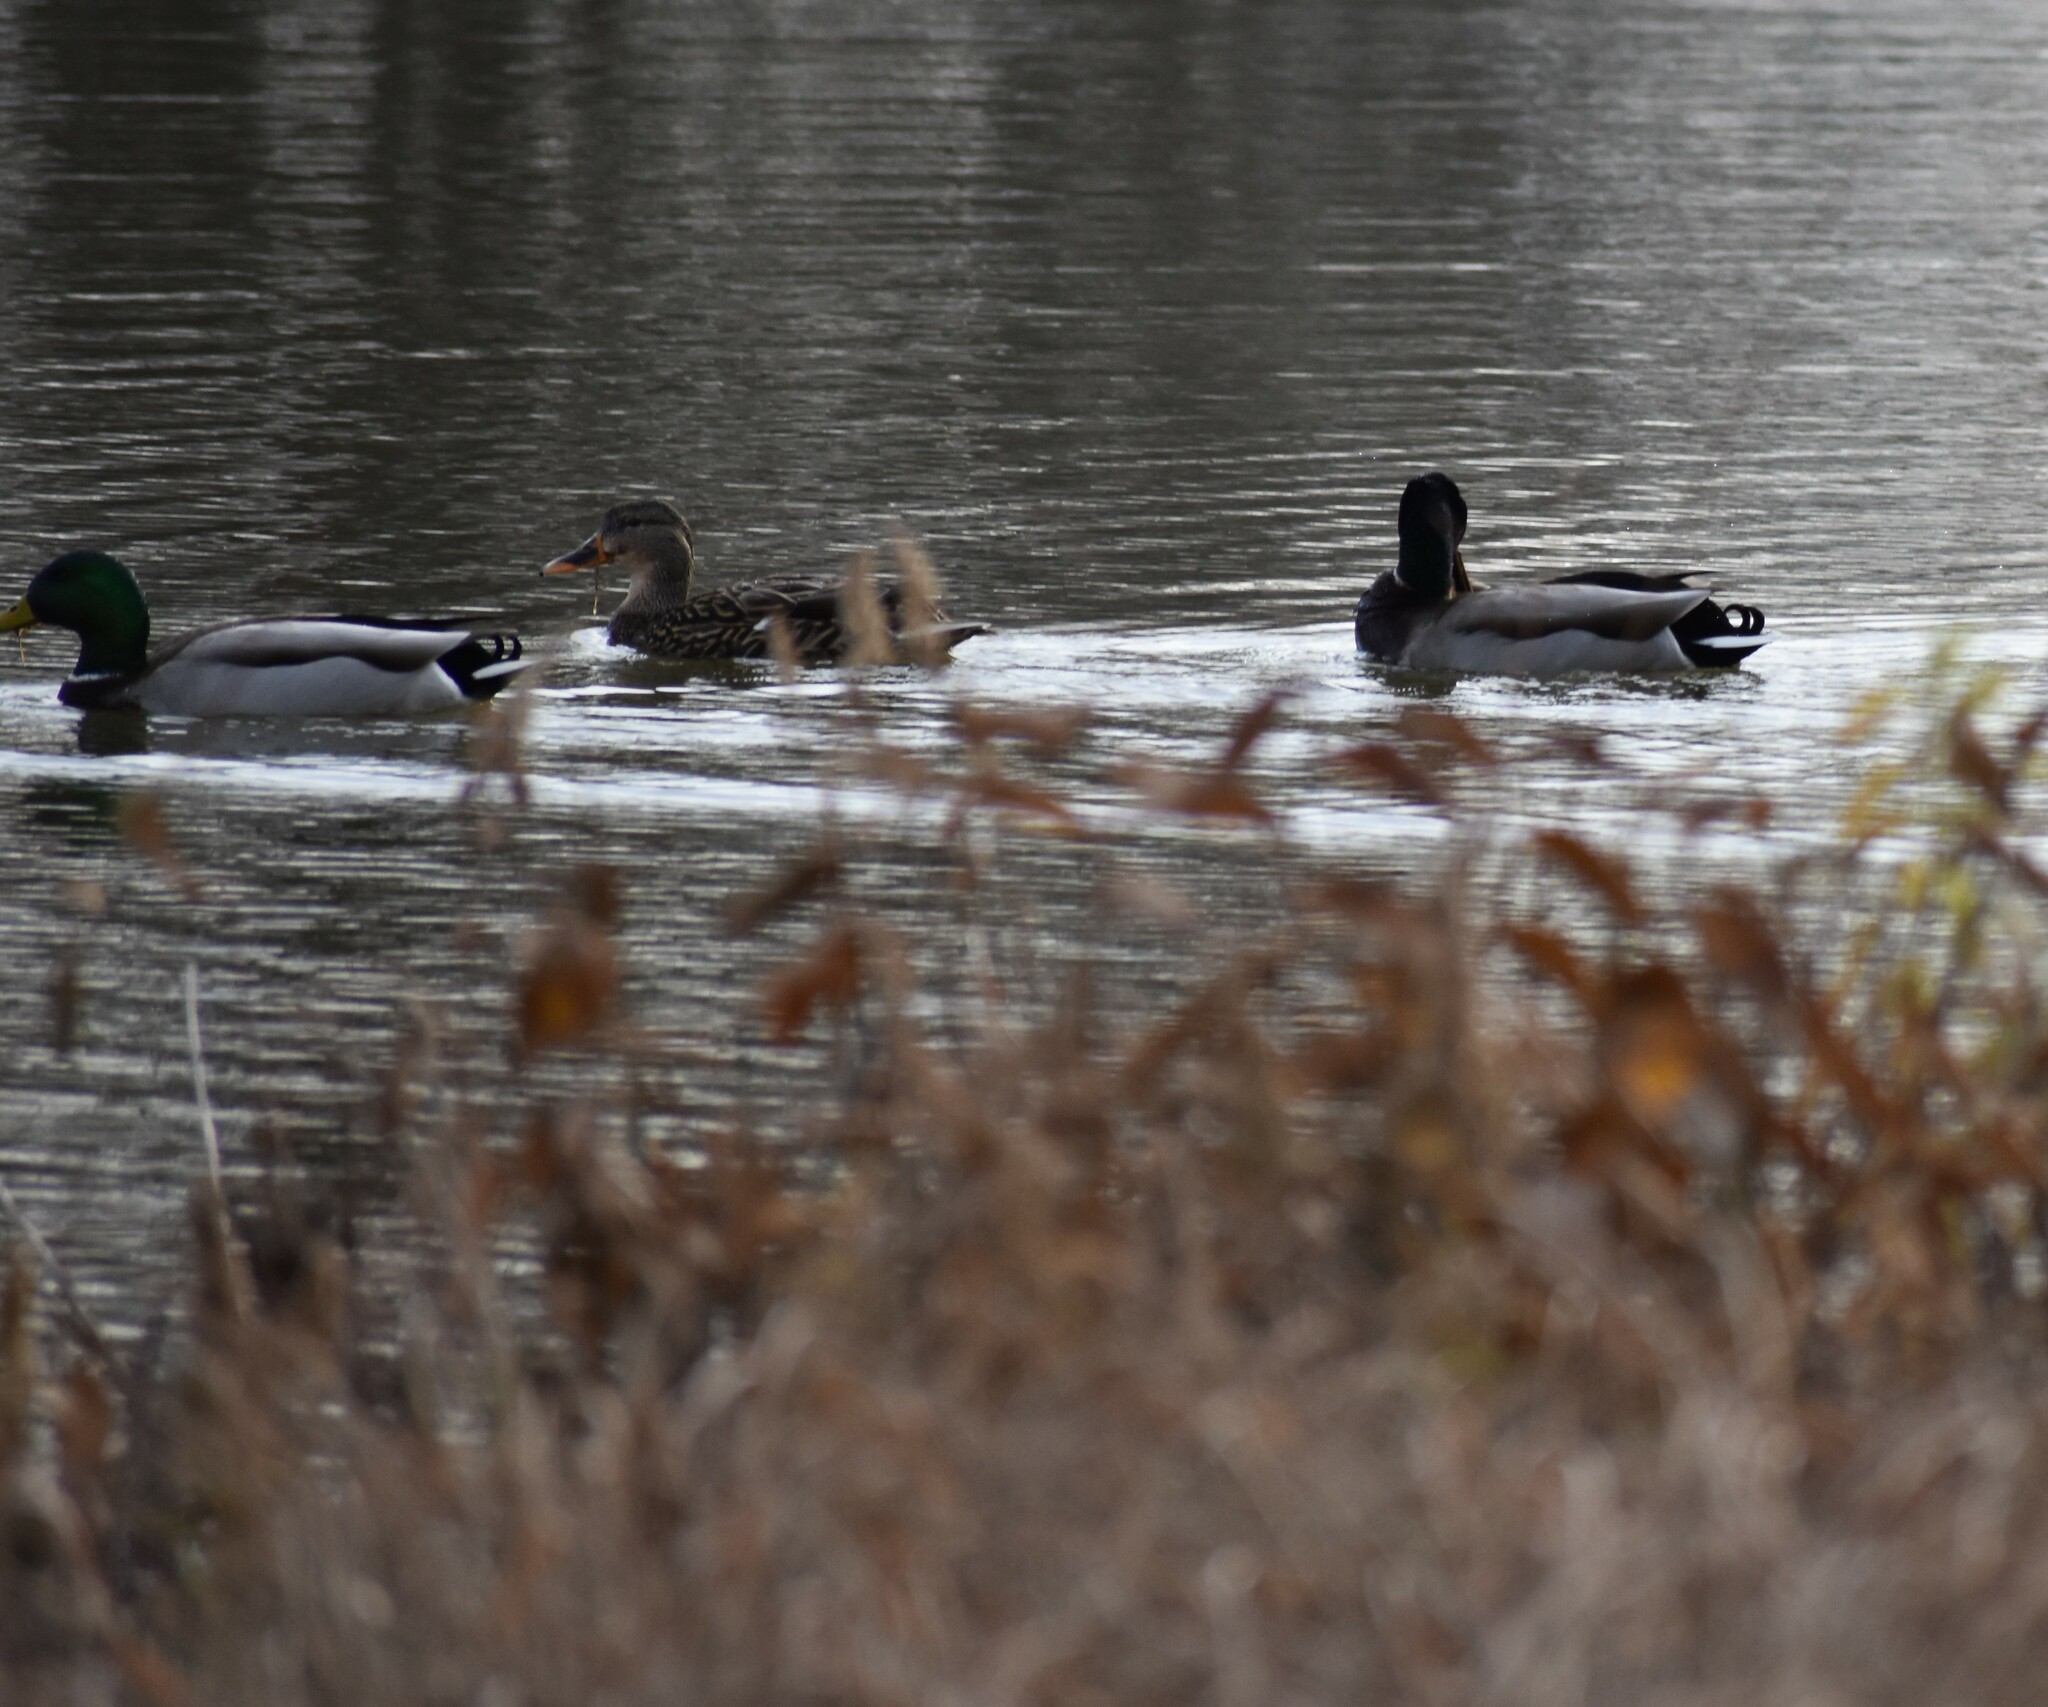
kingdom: Animalia
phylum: Chordata
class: Aves
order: Anseriformes
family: Anatidae
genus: Anas
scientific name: Anas platyrhynchos
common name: Mallard
